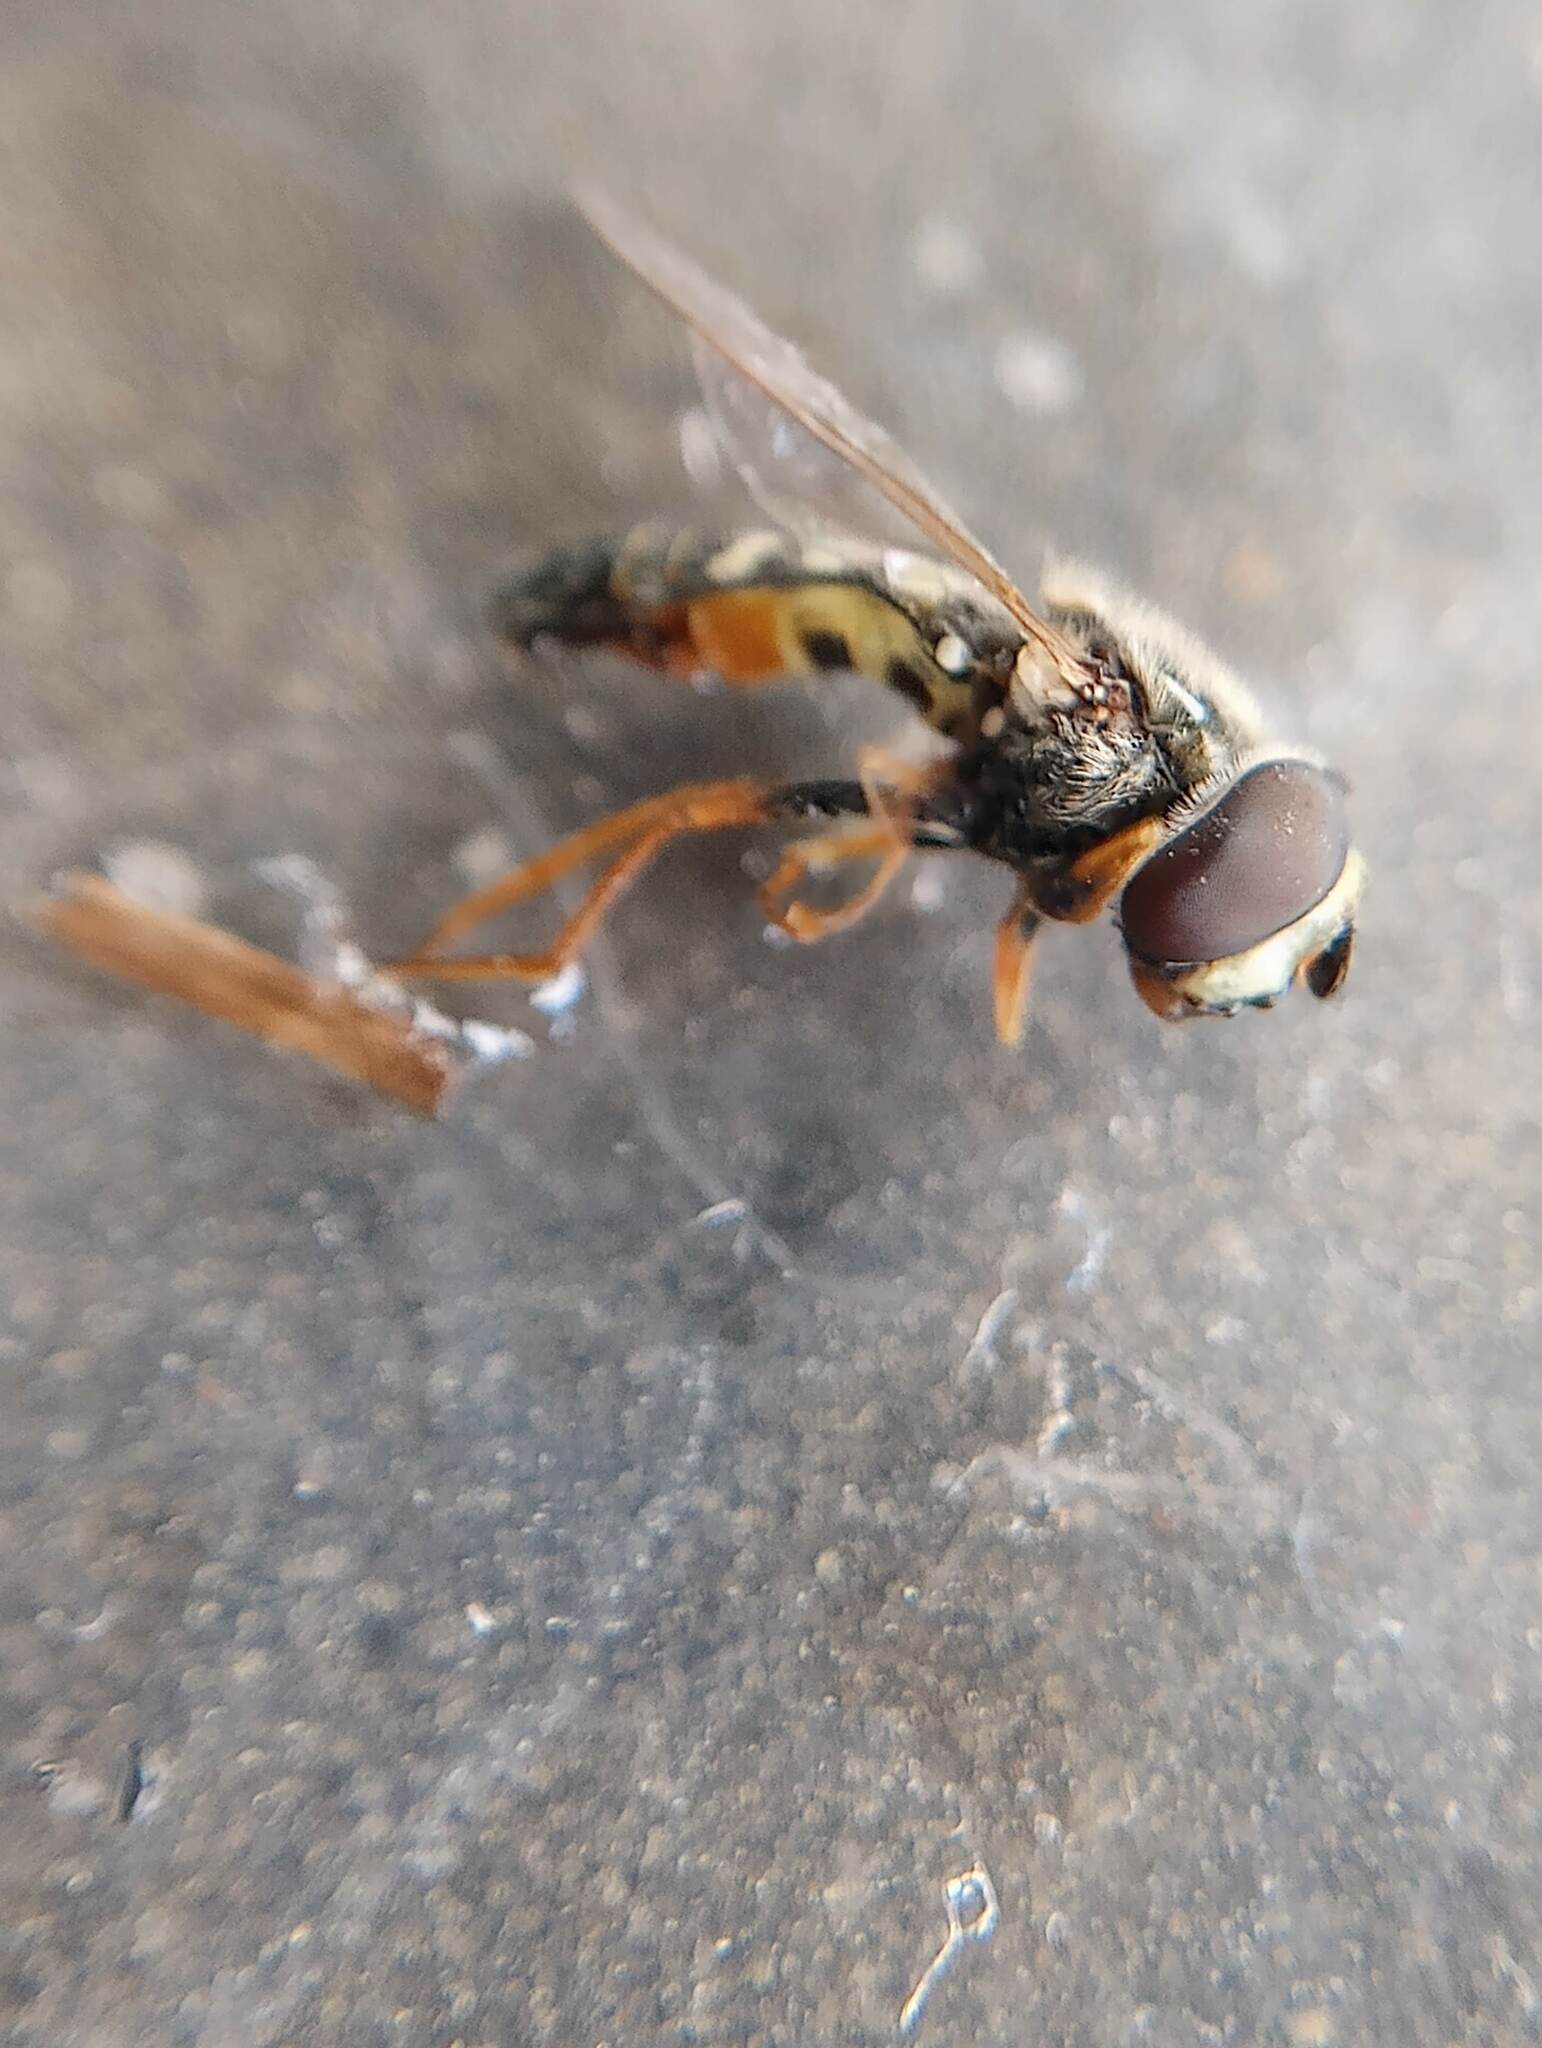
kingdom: Animalia
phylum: Arthropoda
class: Insecta
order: Diptera
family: Syrphidae
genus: Eupeodes
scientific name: Eupeodes volucris
